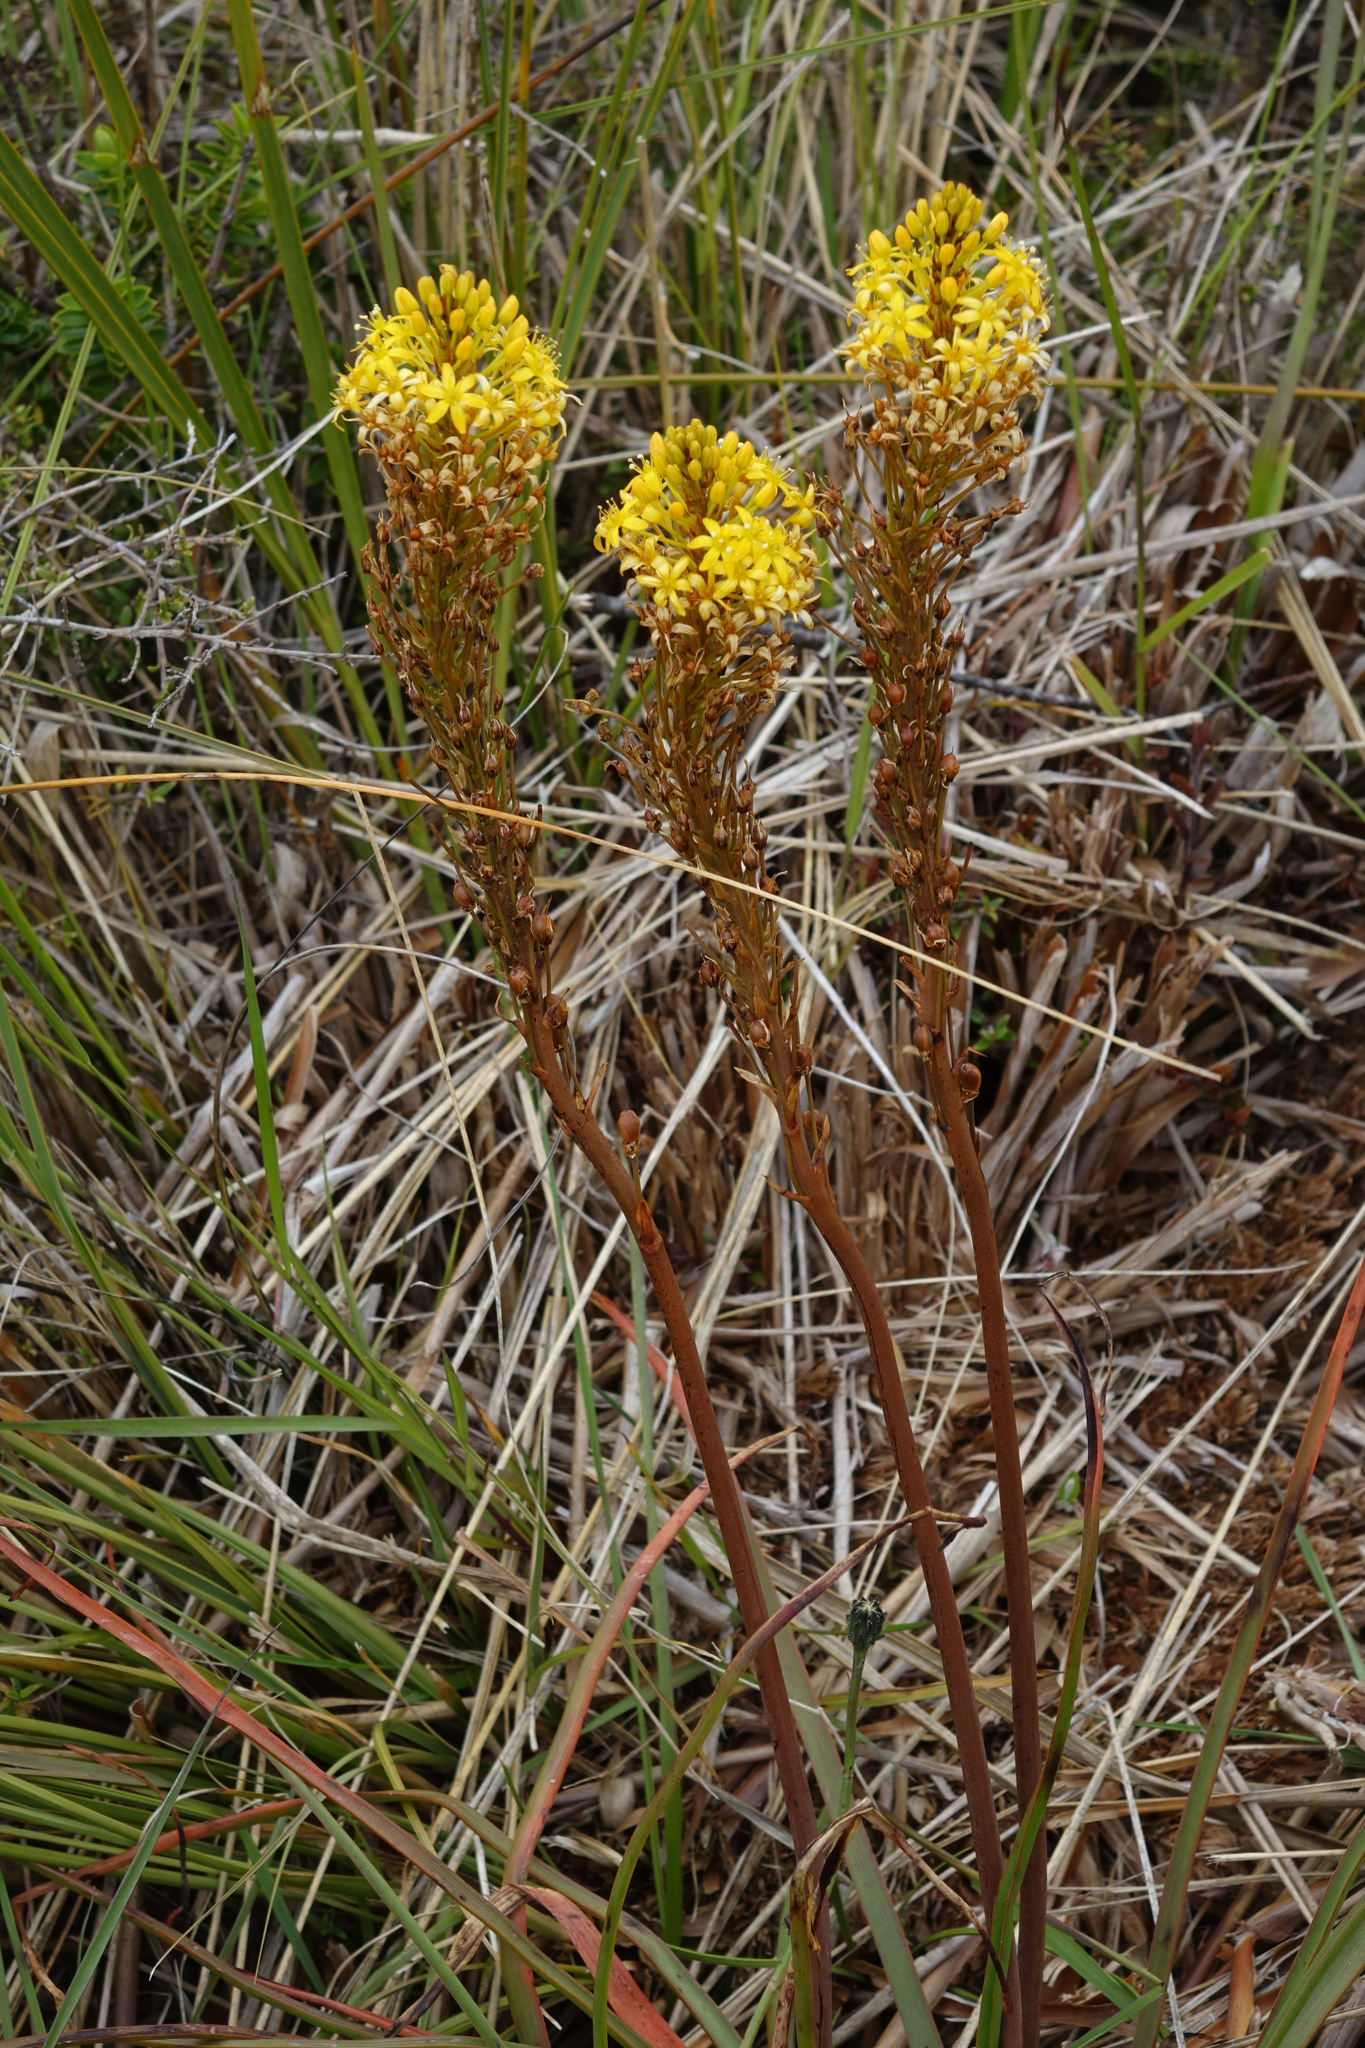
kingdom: Plantae
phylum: Tracheophyta
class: Liliopsida
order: Asparagales
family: Asphodelaceae
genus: Bulbinella
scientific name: Bulbinella angustifolia
